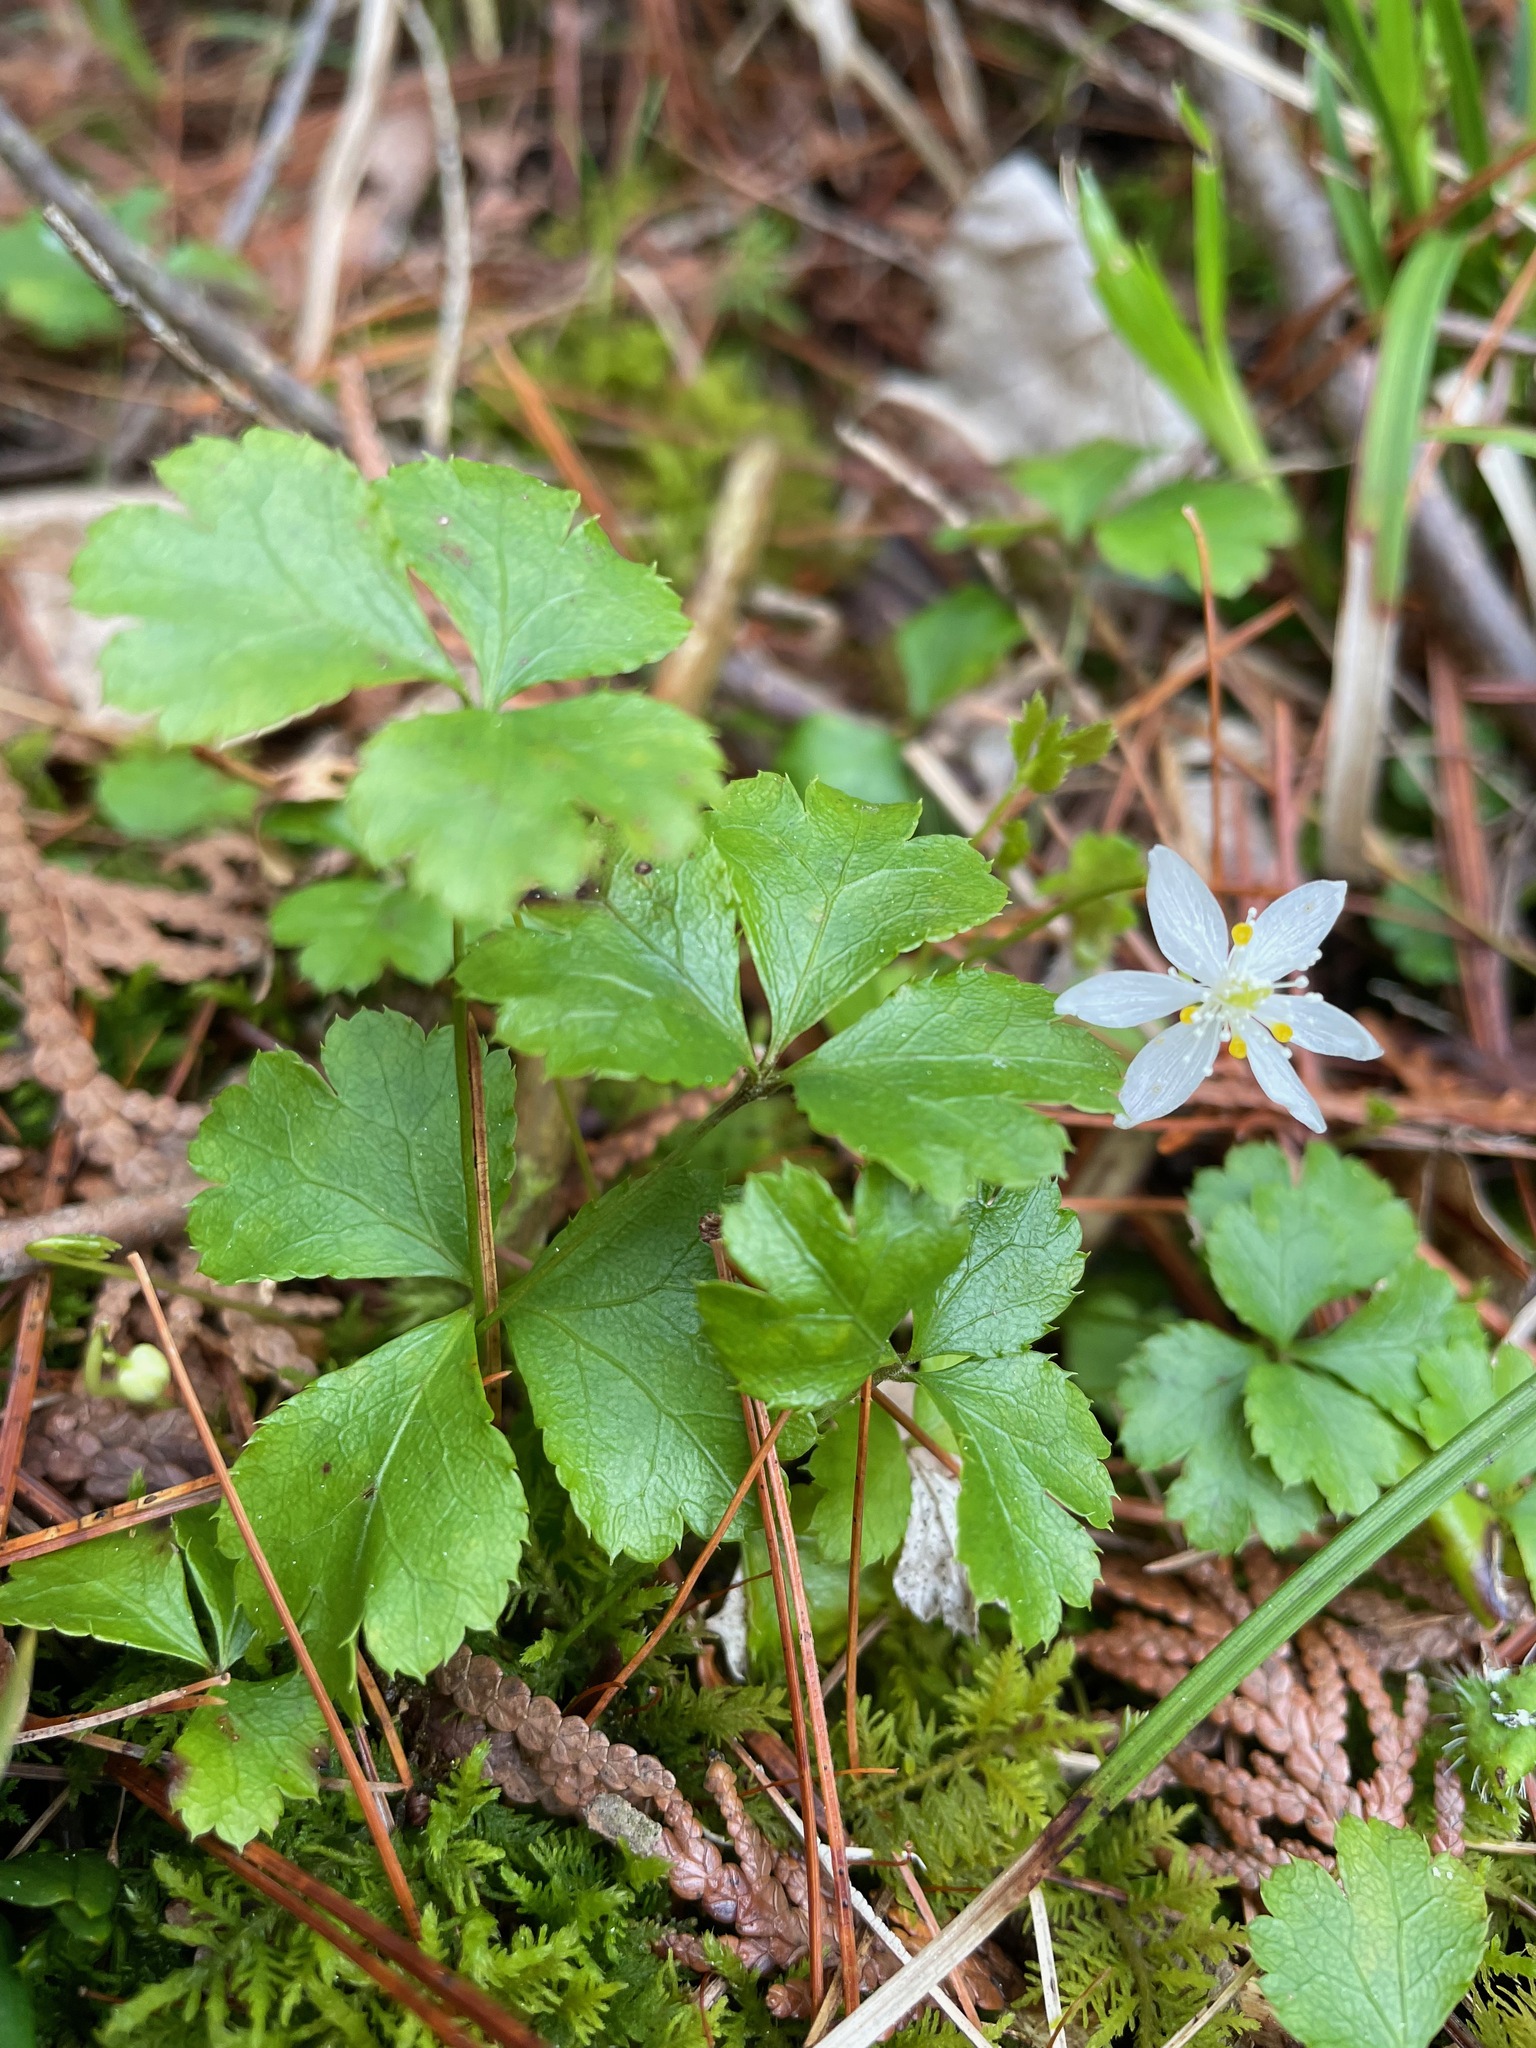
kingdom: Plantae
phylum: Tracheophyta
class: Magnoliopsida
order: Ranunculales
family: Ranunculaceae
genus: Coptis
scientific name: Coptis trifolia
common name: Canker-root
